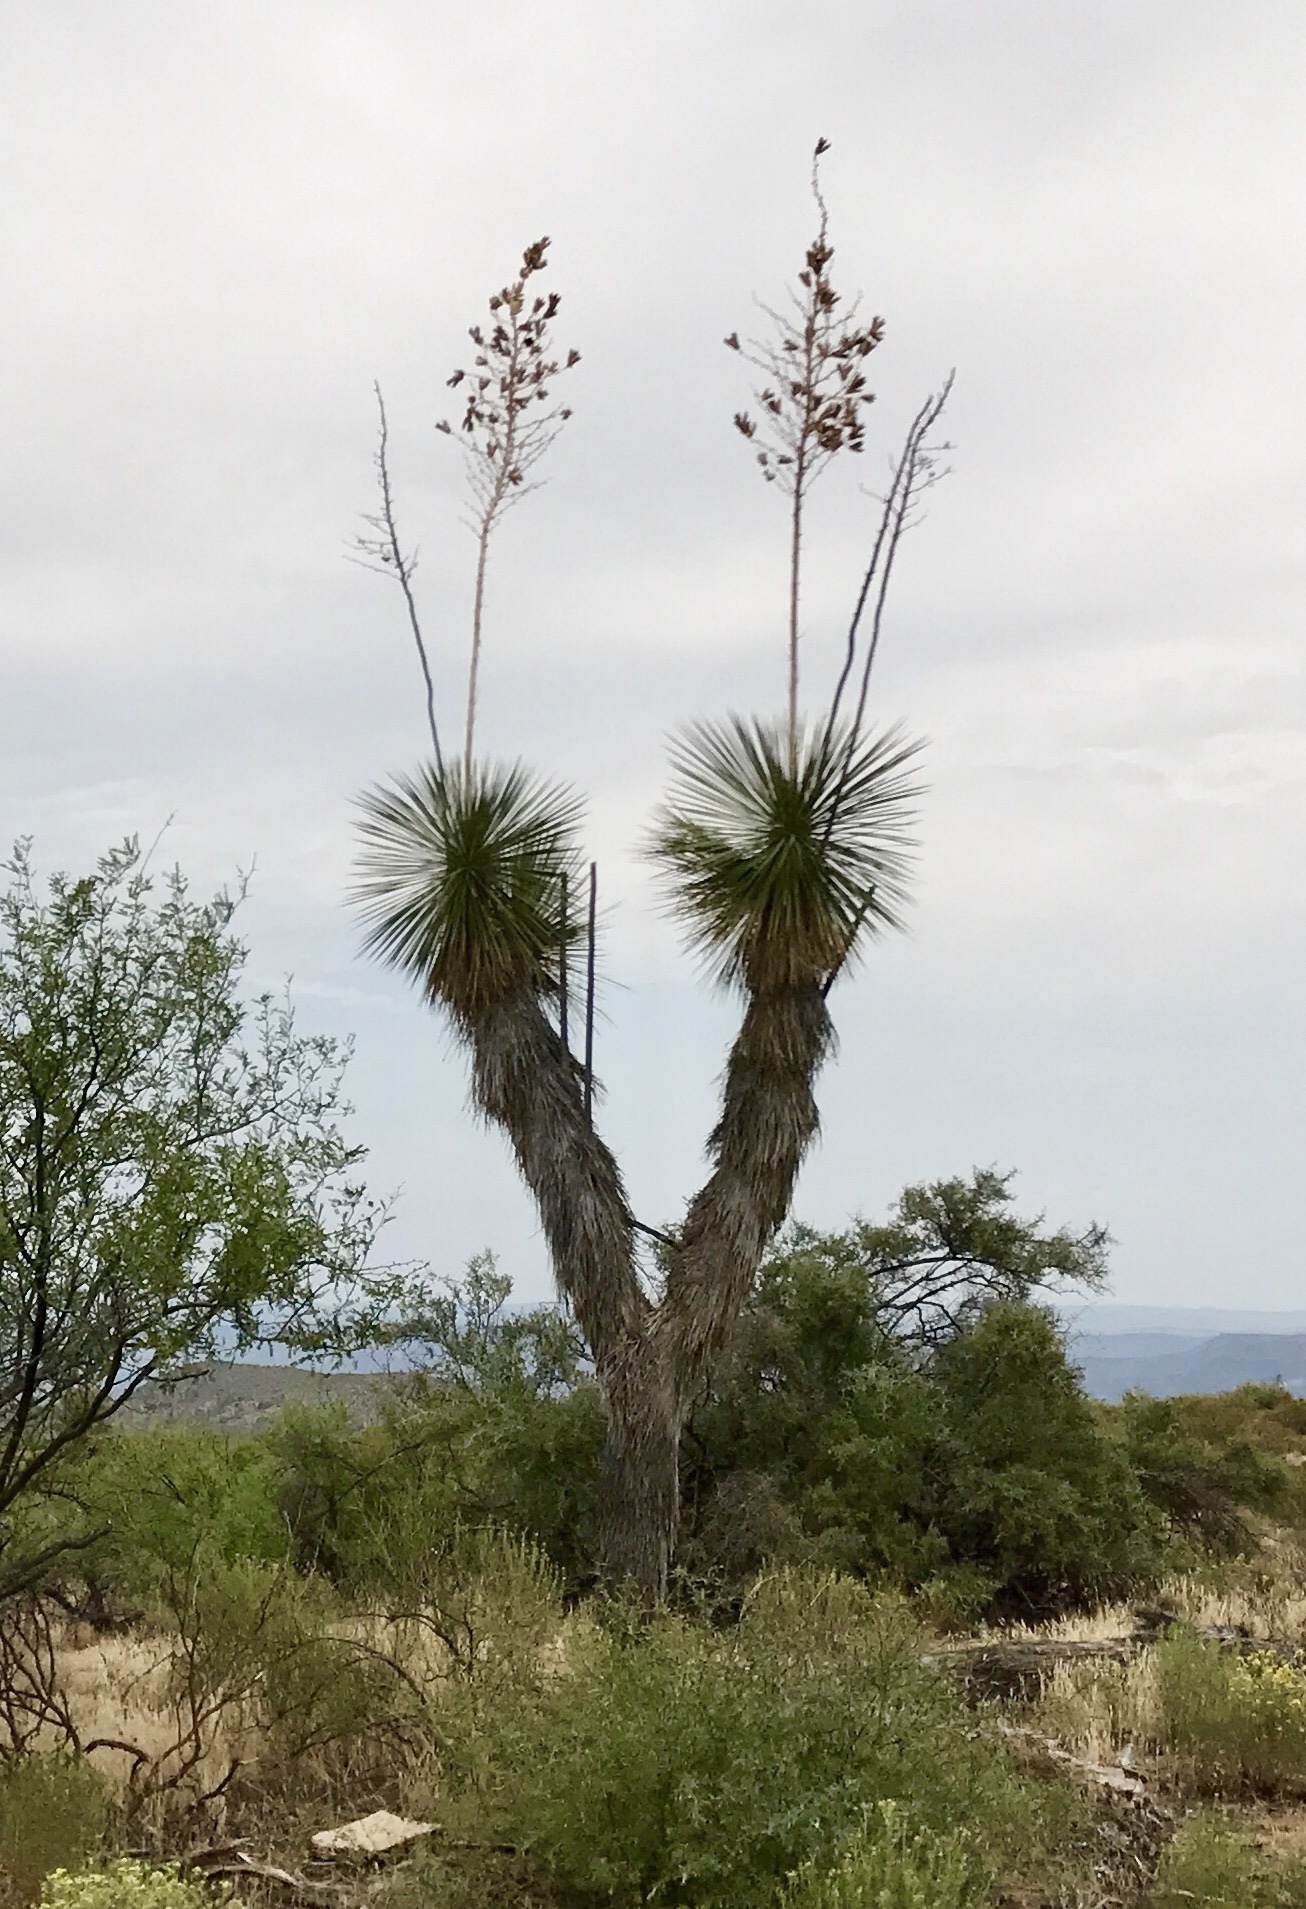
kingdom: Plantae
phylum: Tracheophyta
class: Liliopsida
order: Asparagales
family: Asparagaceae
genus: Yucca
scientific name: Yucca elata
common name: Palmella
